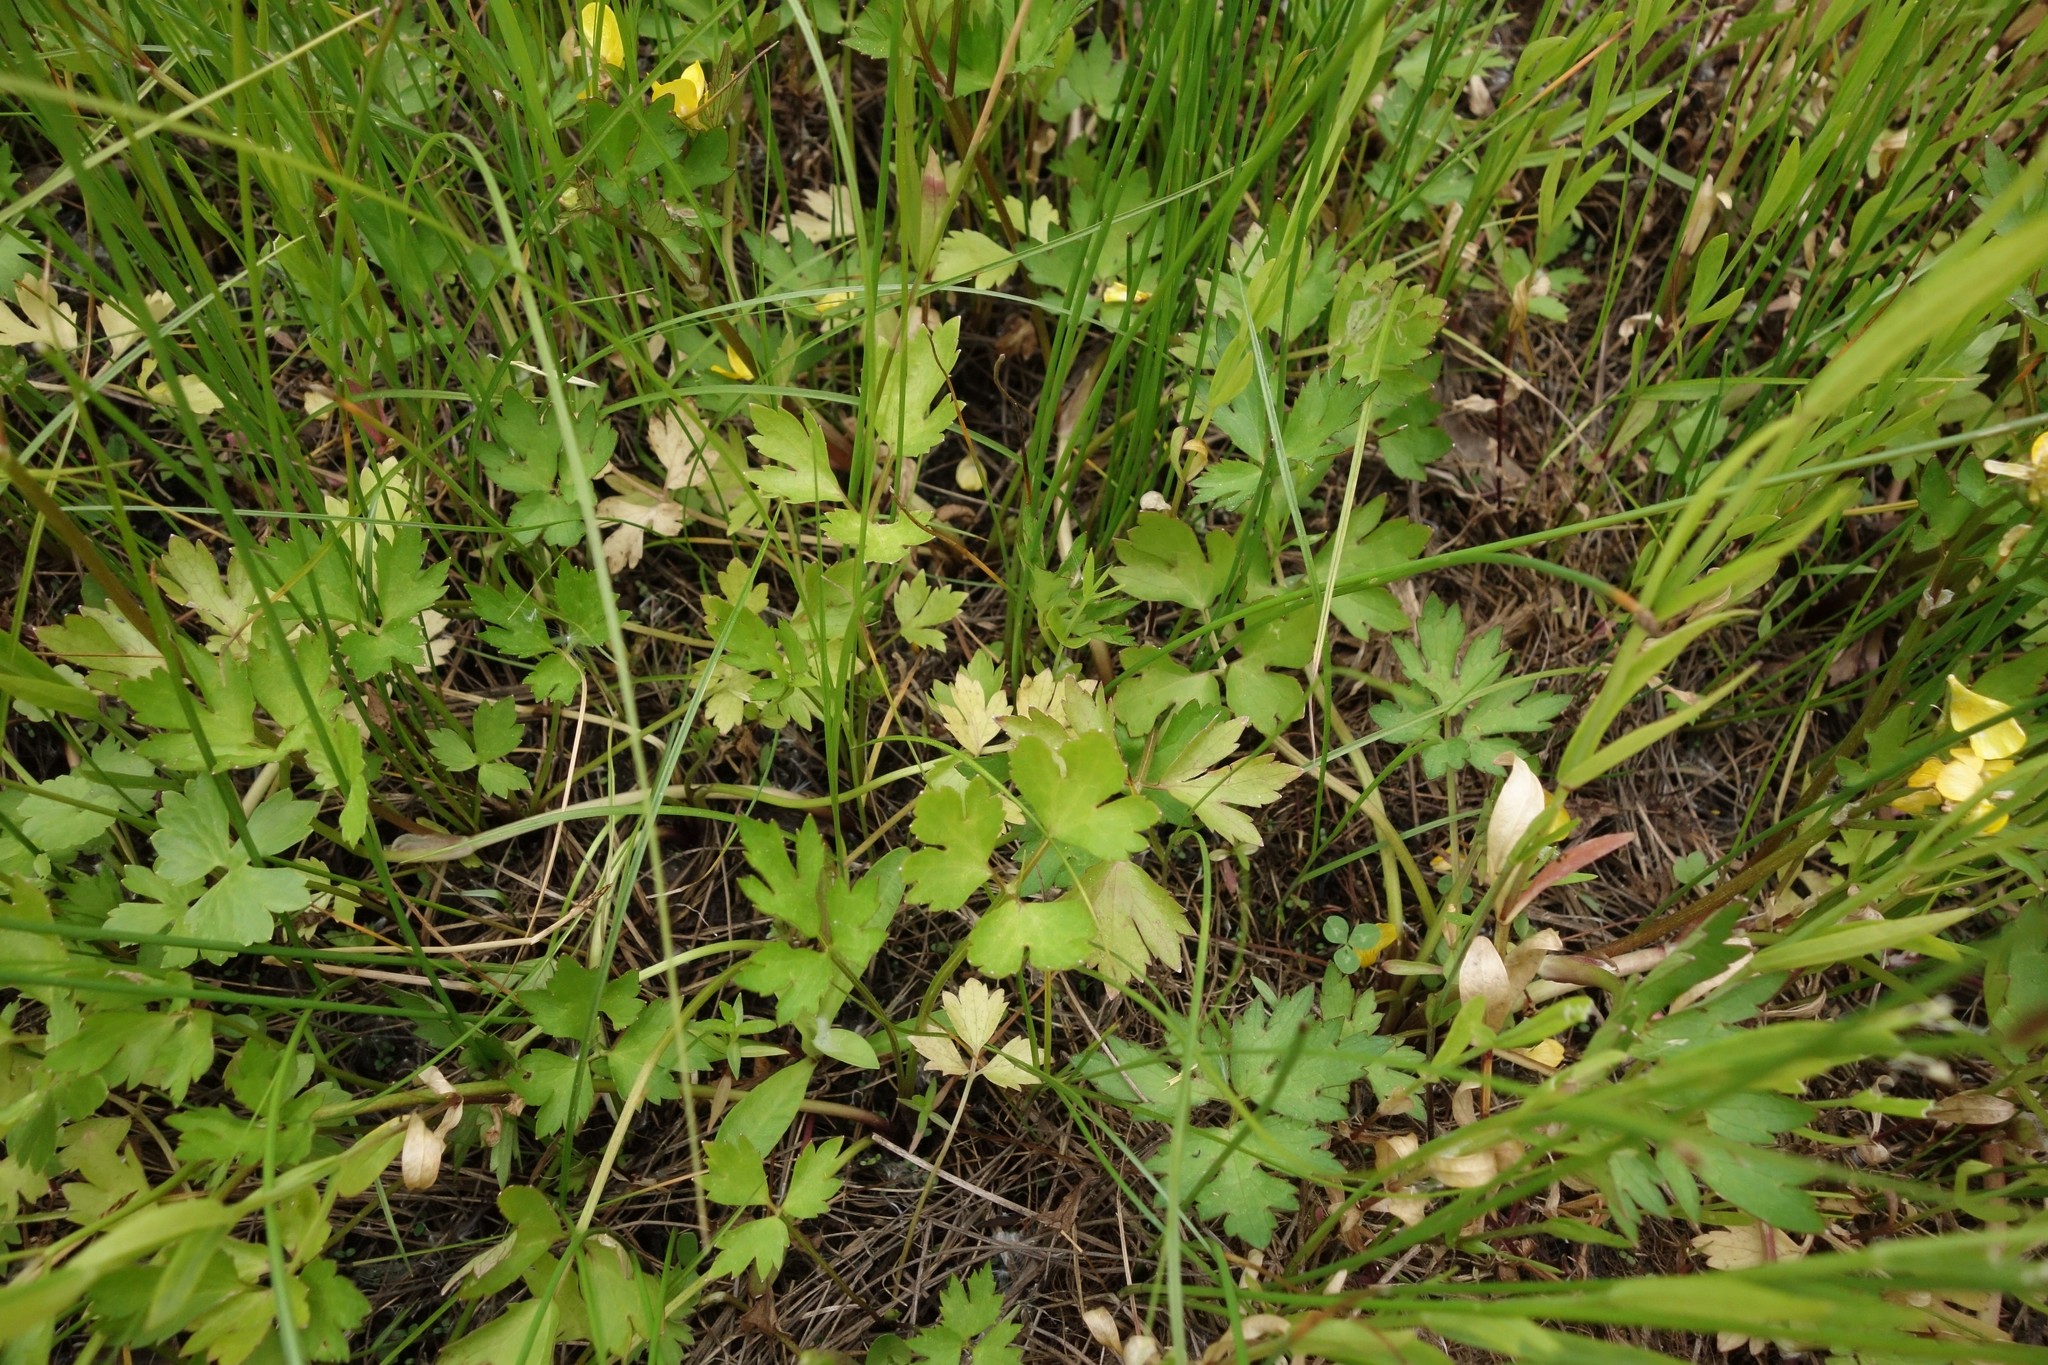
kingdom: Plantae
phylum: Tracheophyta
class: Magnoliopsida
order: Ranunculales
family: Ranunculaceae
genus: Ranunculus
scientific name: Ranunculus repens
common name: Creeping buttercup
